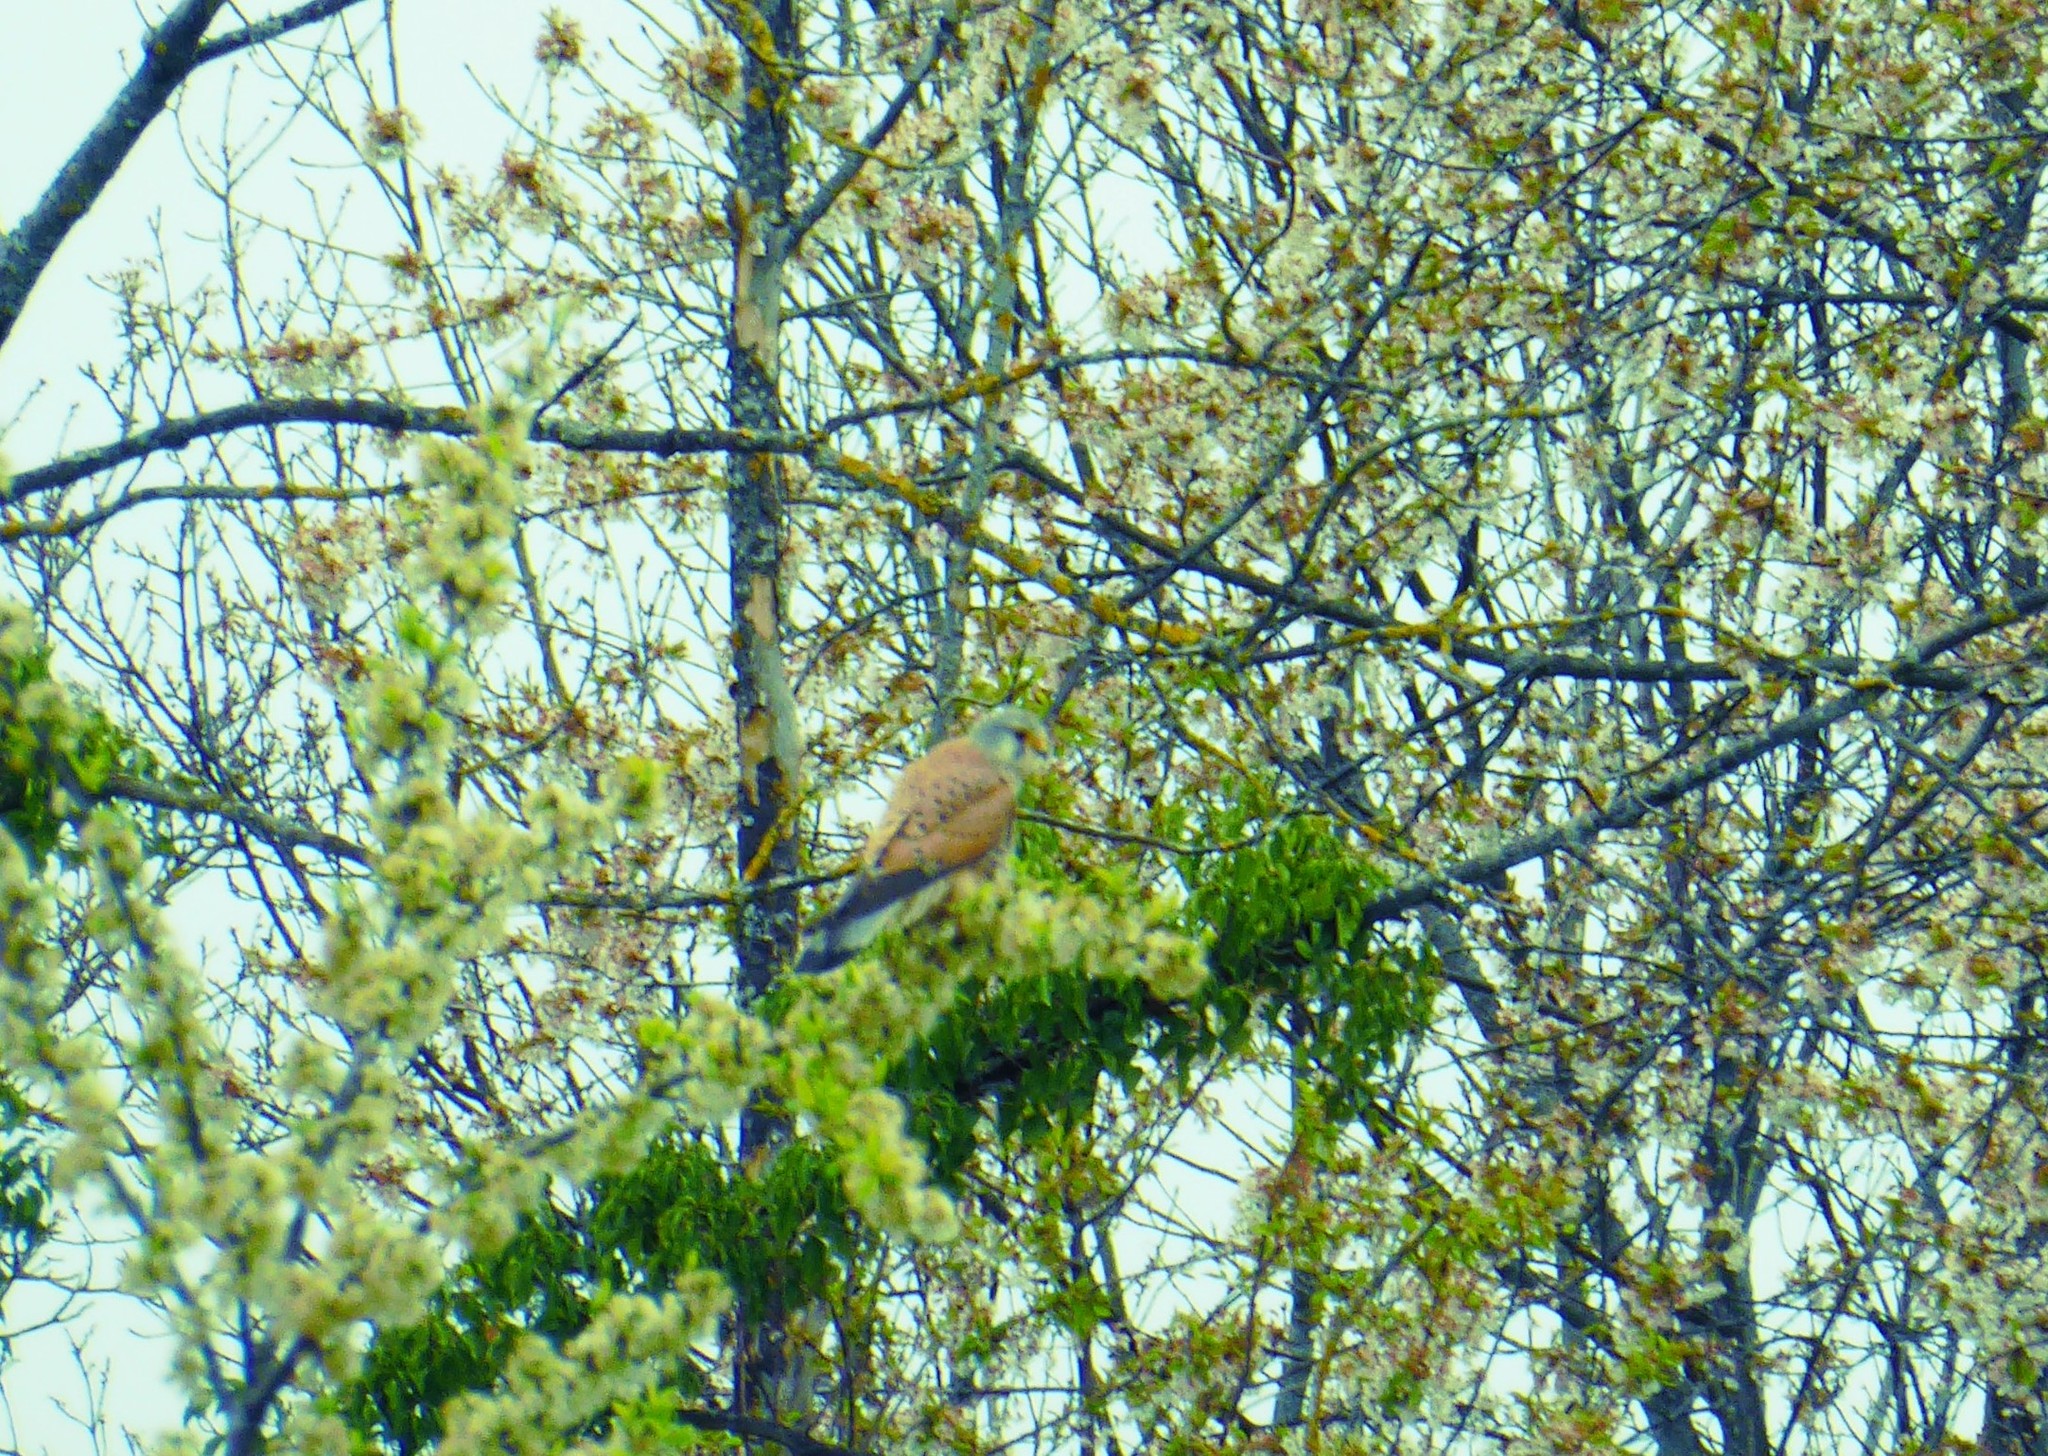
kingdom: Animalia
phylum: Chordata
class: Aves
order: Falconiformes
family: Falconidae
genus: Falco
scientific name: Falco tinnunculus
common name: Common kestrel
